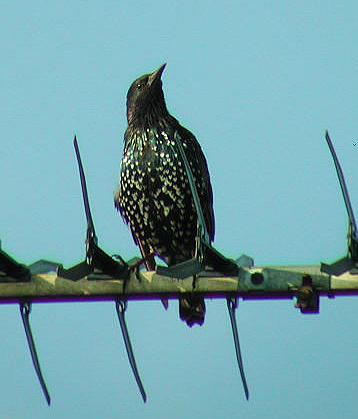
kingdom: Animalia
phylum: Chordata
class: Aves
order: Passeriformes
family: Sturnidae
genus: Sturnus
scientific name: Sturnus vulgaris
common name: Common starling
